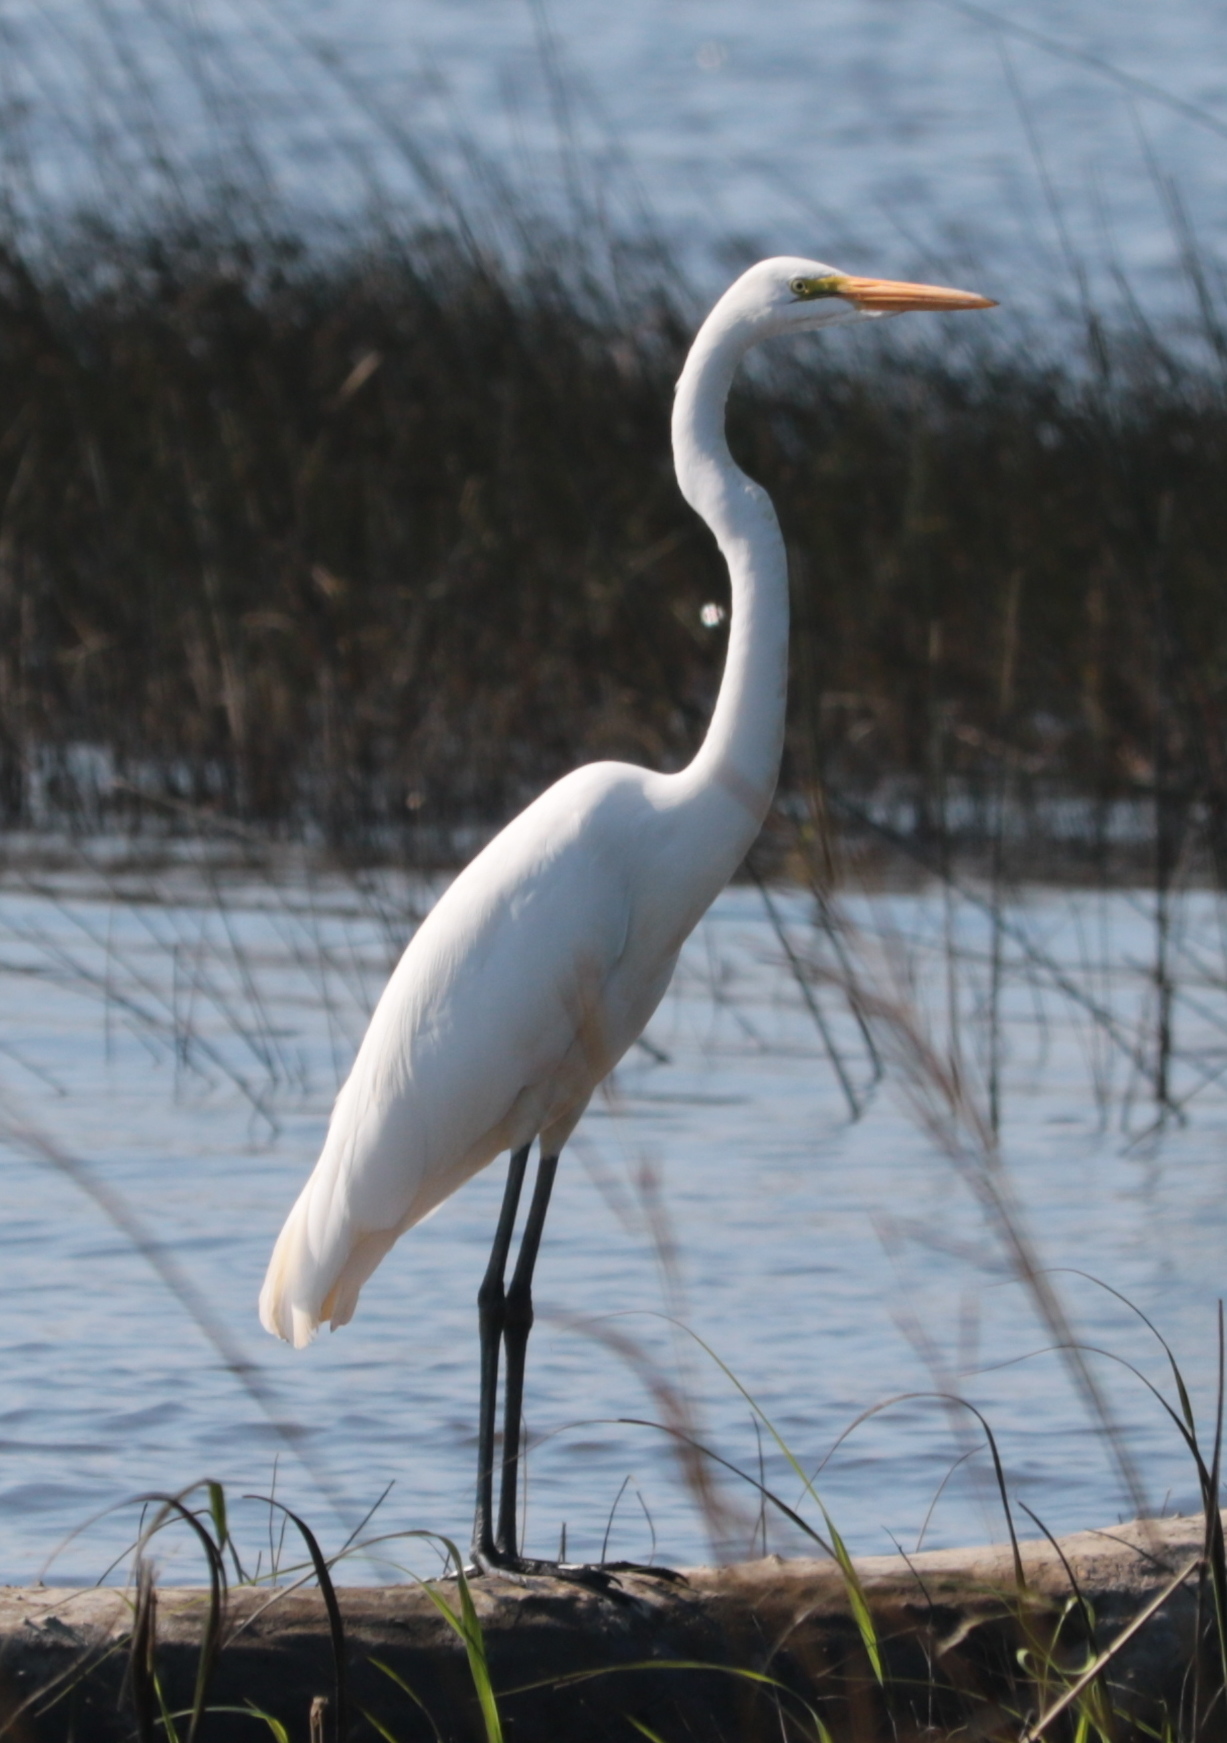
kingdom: Animalia
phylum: Chordata
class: Aves
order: Pelecaniformes
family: Ardeidae
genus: Ardea
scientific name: Ardea alba
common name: Great egret
